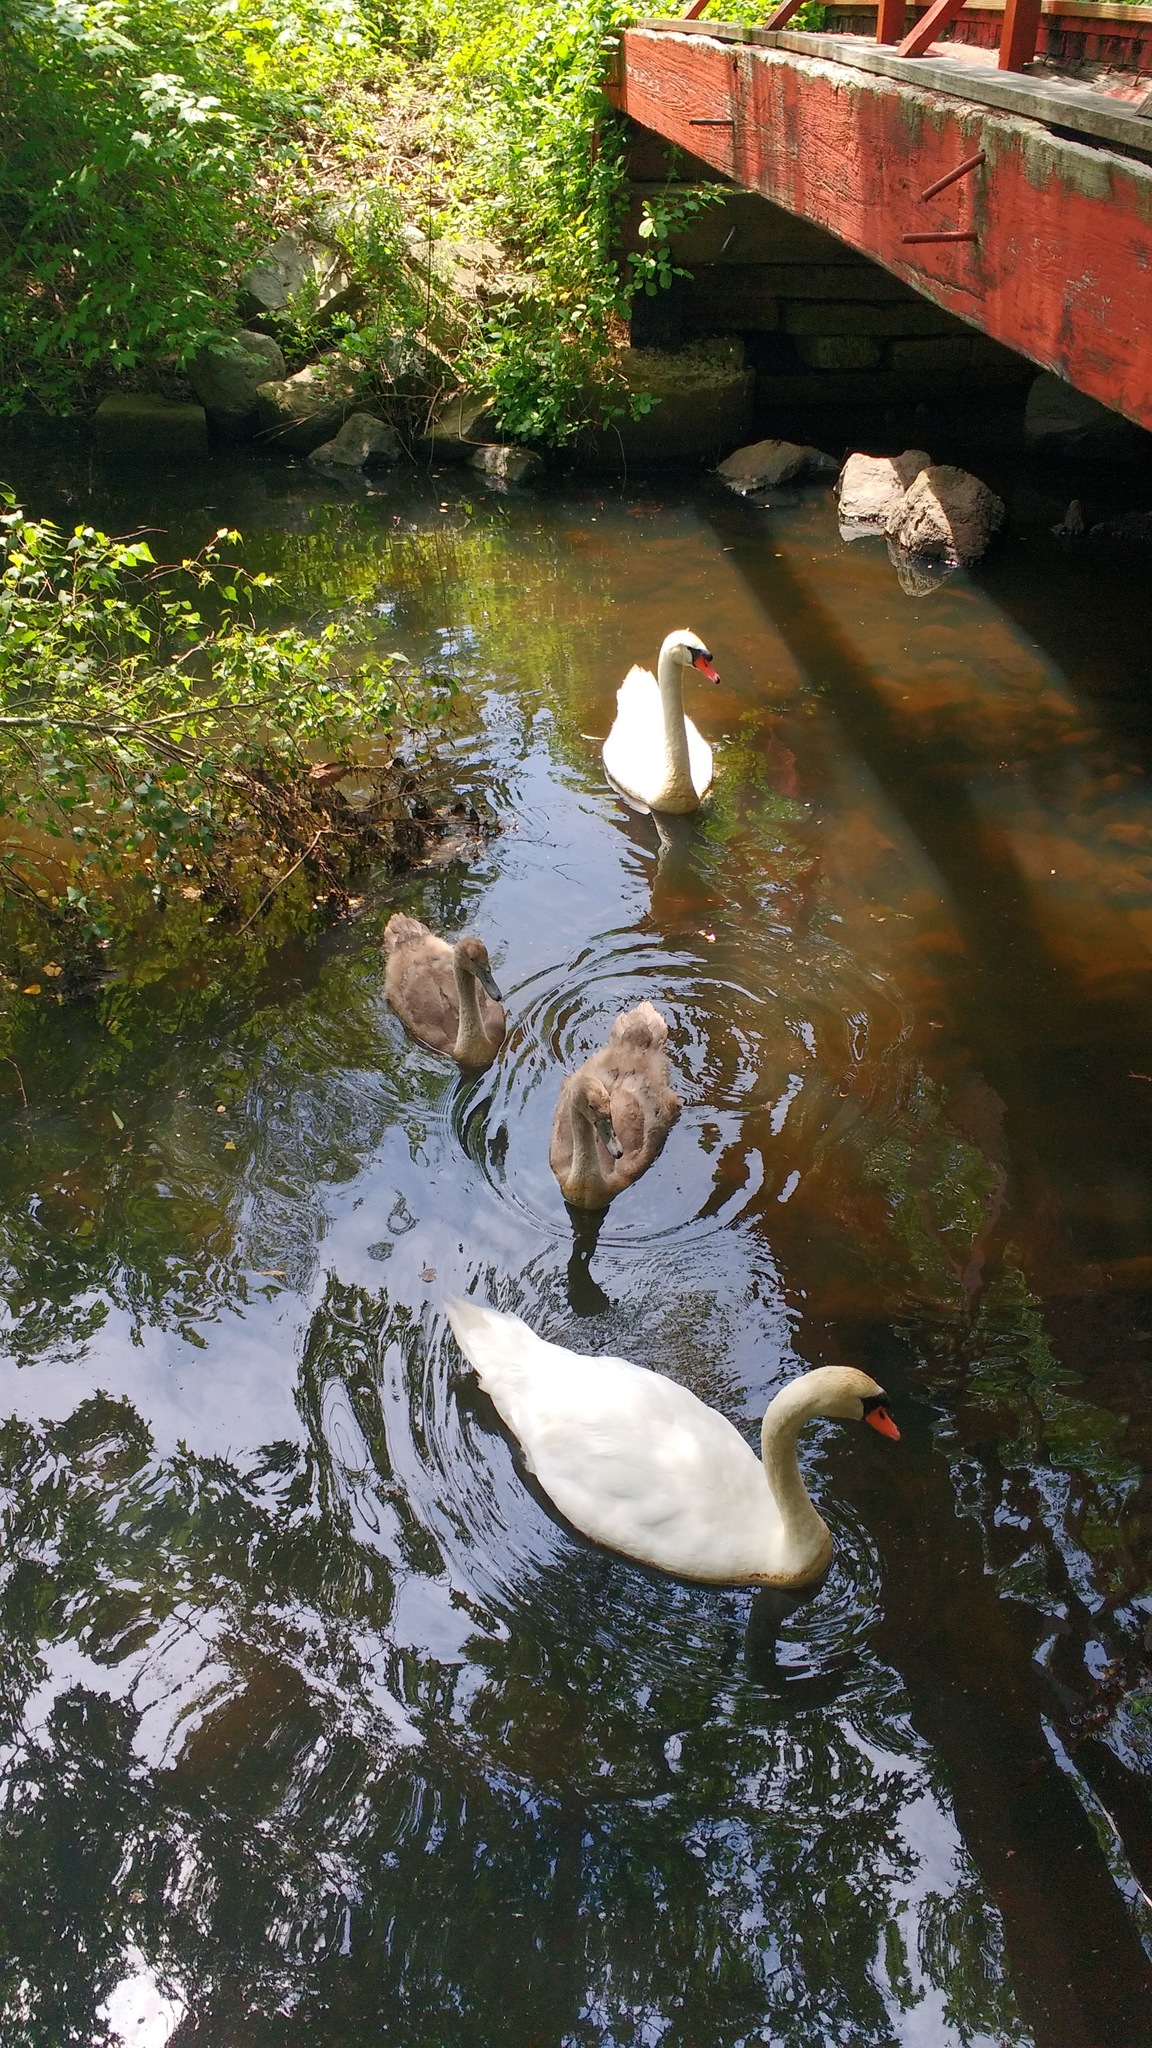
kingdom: Animalia
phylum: Chordata
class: Aves
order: Anseriformes
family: Anatidae
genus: Cygnus
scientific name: Cygnus olor
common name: Mute swan
